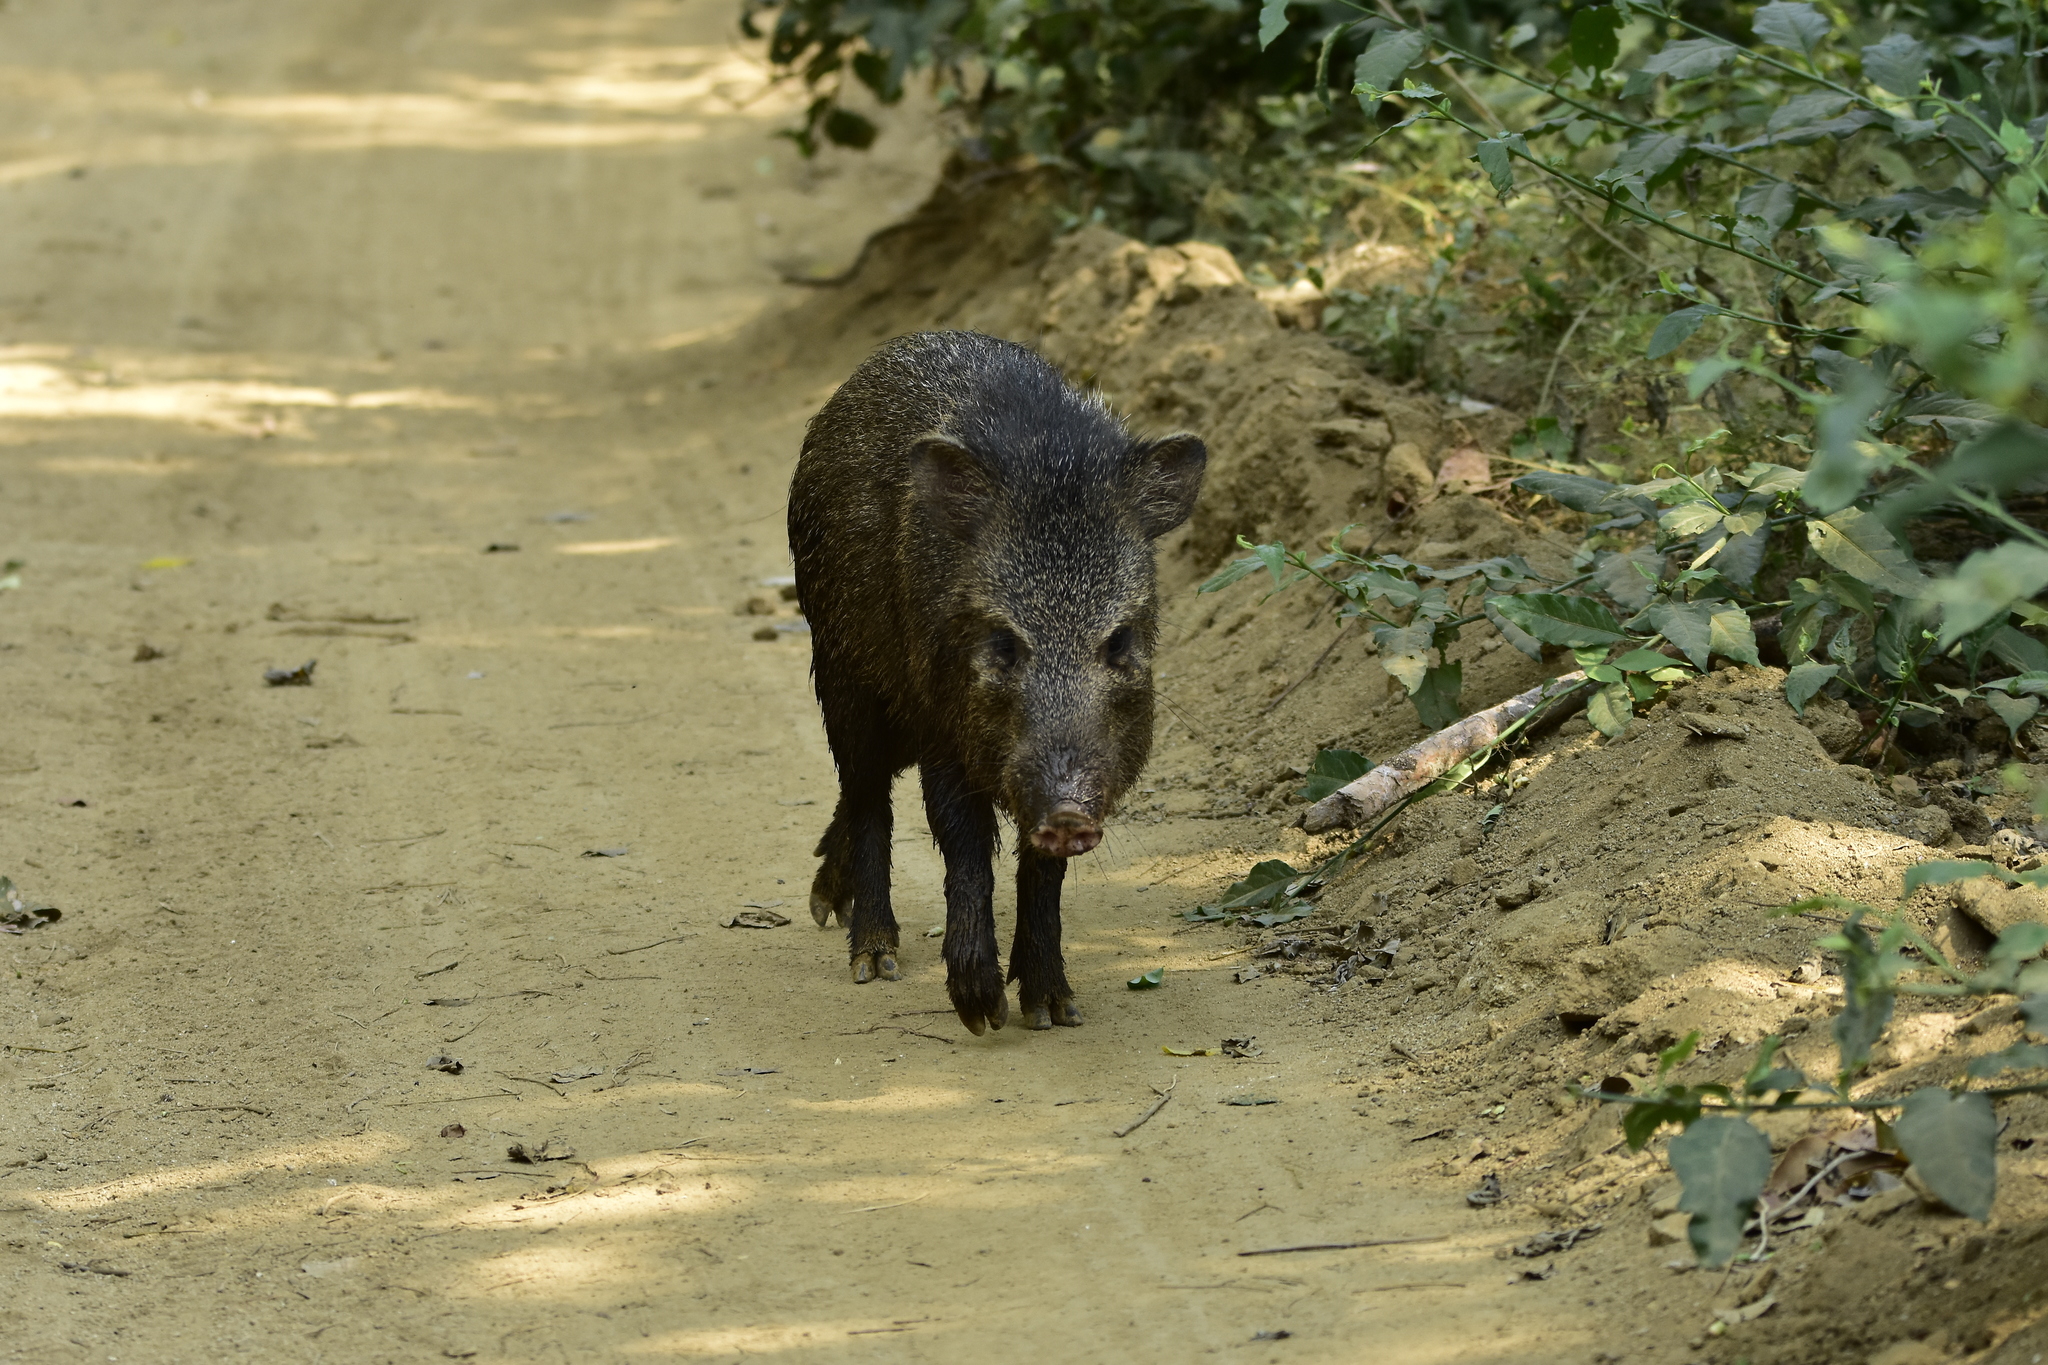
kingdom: Animalia
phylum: Chordata
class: Mammalia
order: Artiodactyla
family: Tayassuidae
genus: Pecari
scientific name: Pecari tajacu
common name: Collared peccary
